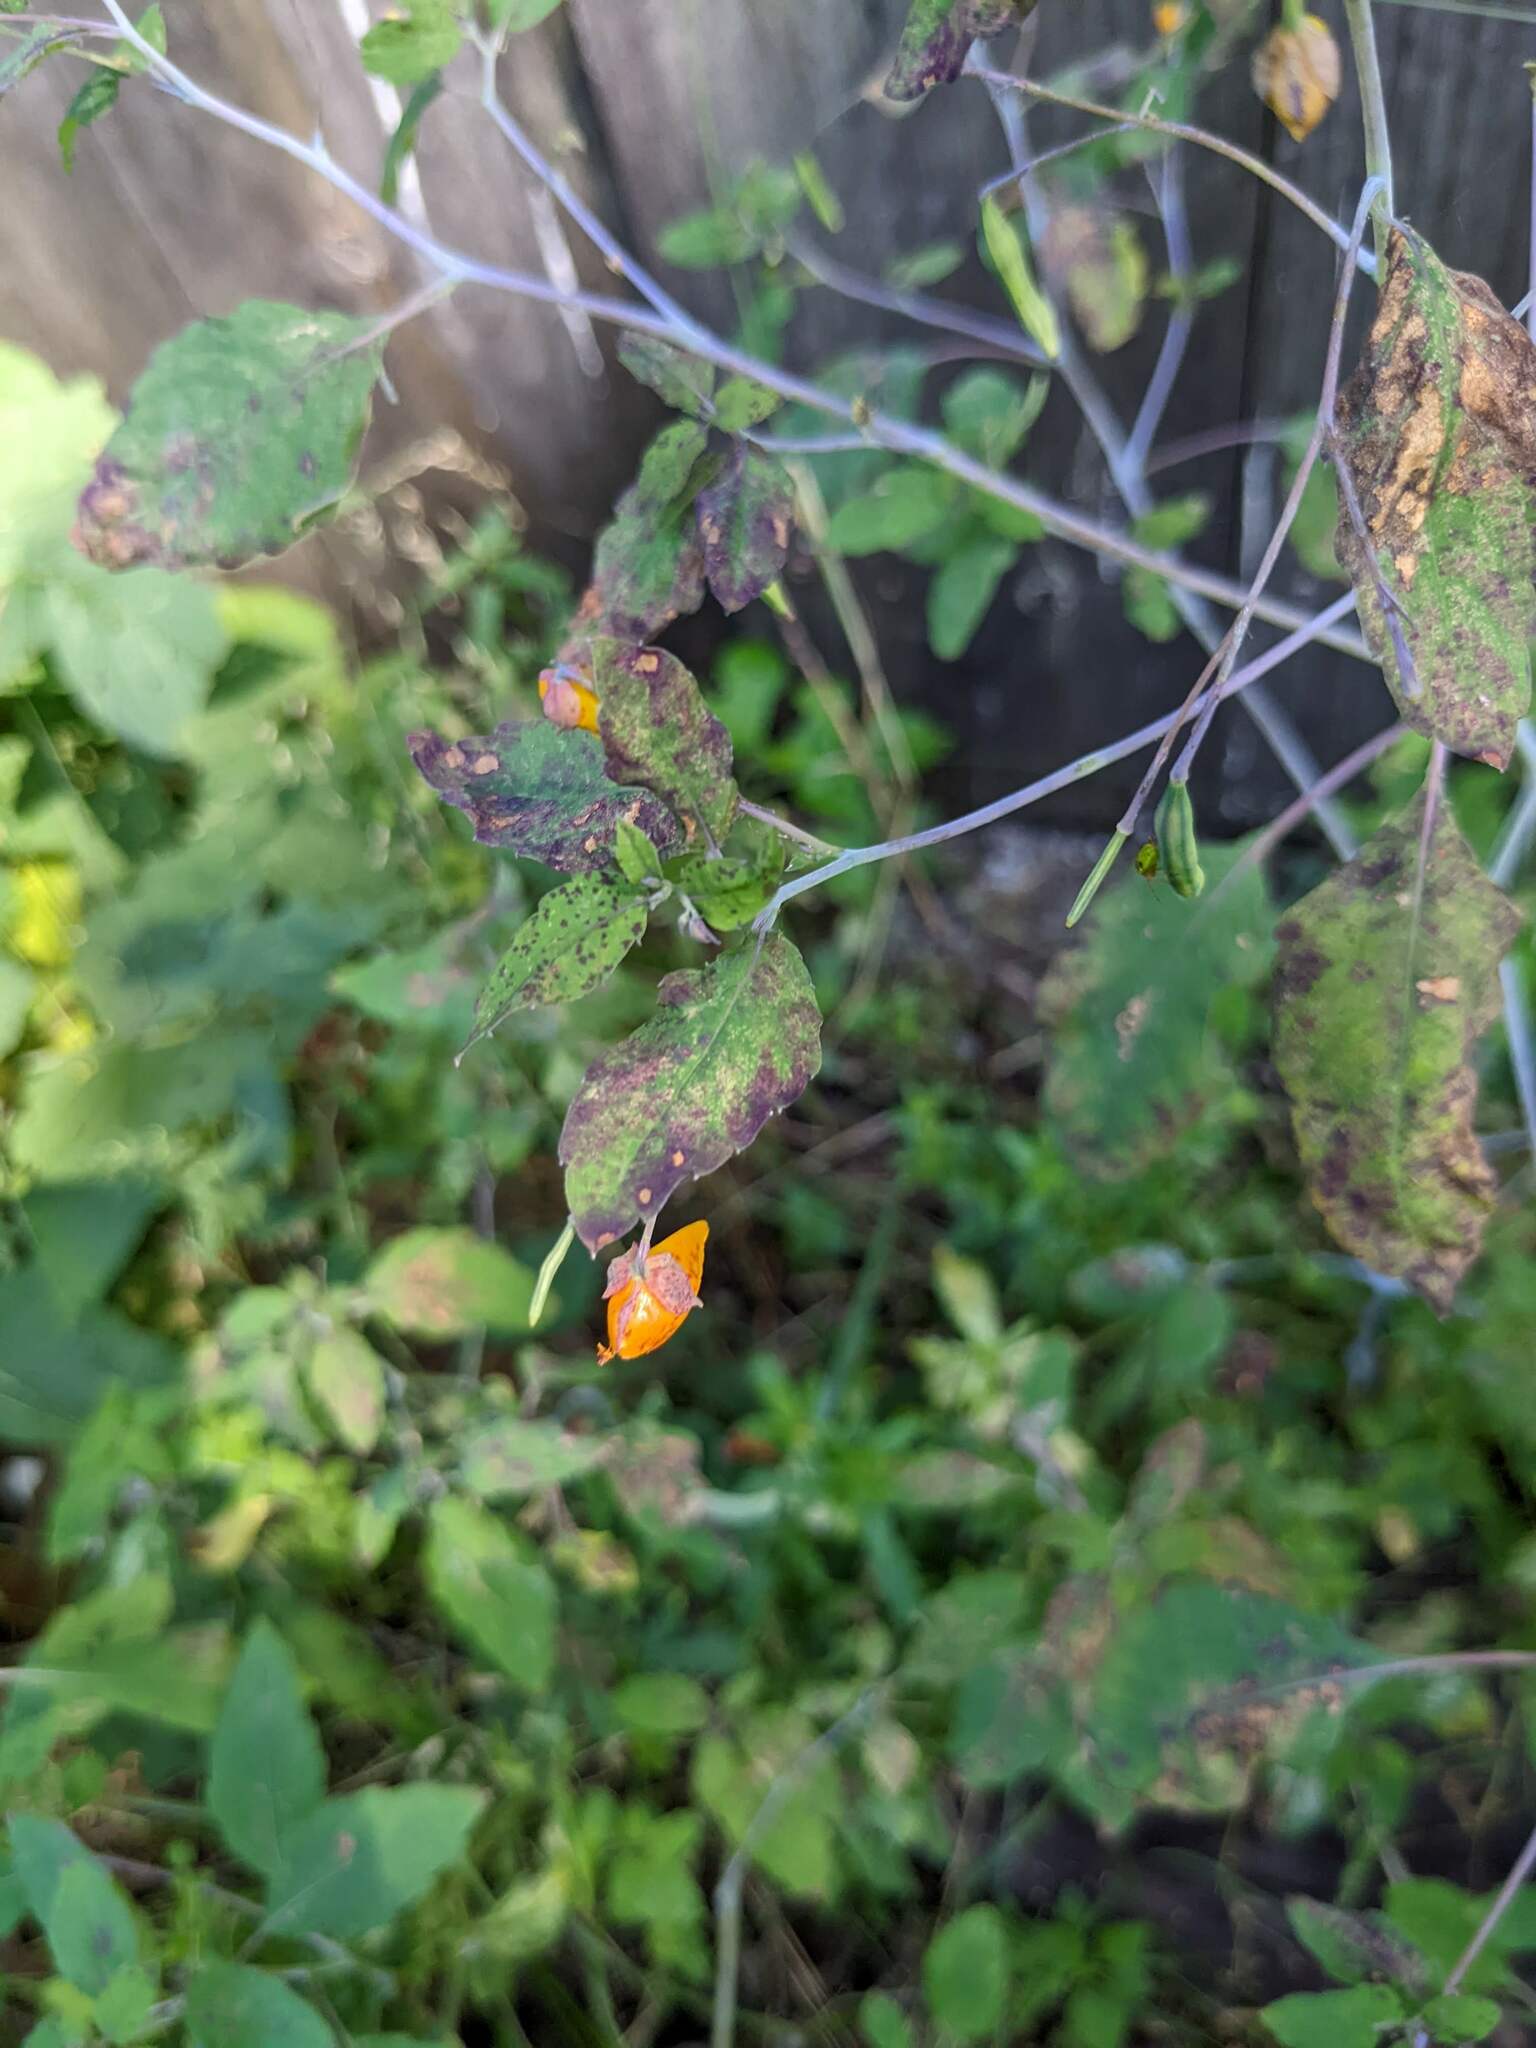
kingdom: Plantae
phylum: Tracheophyta
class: Magnoliopsida
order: Ericales
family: Balsaminaceae
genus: Impatiens
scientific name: Impatiens capensis
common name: Orange balsam
